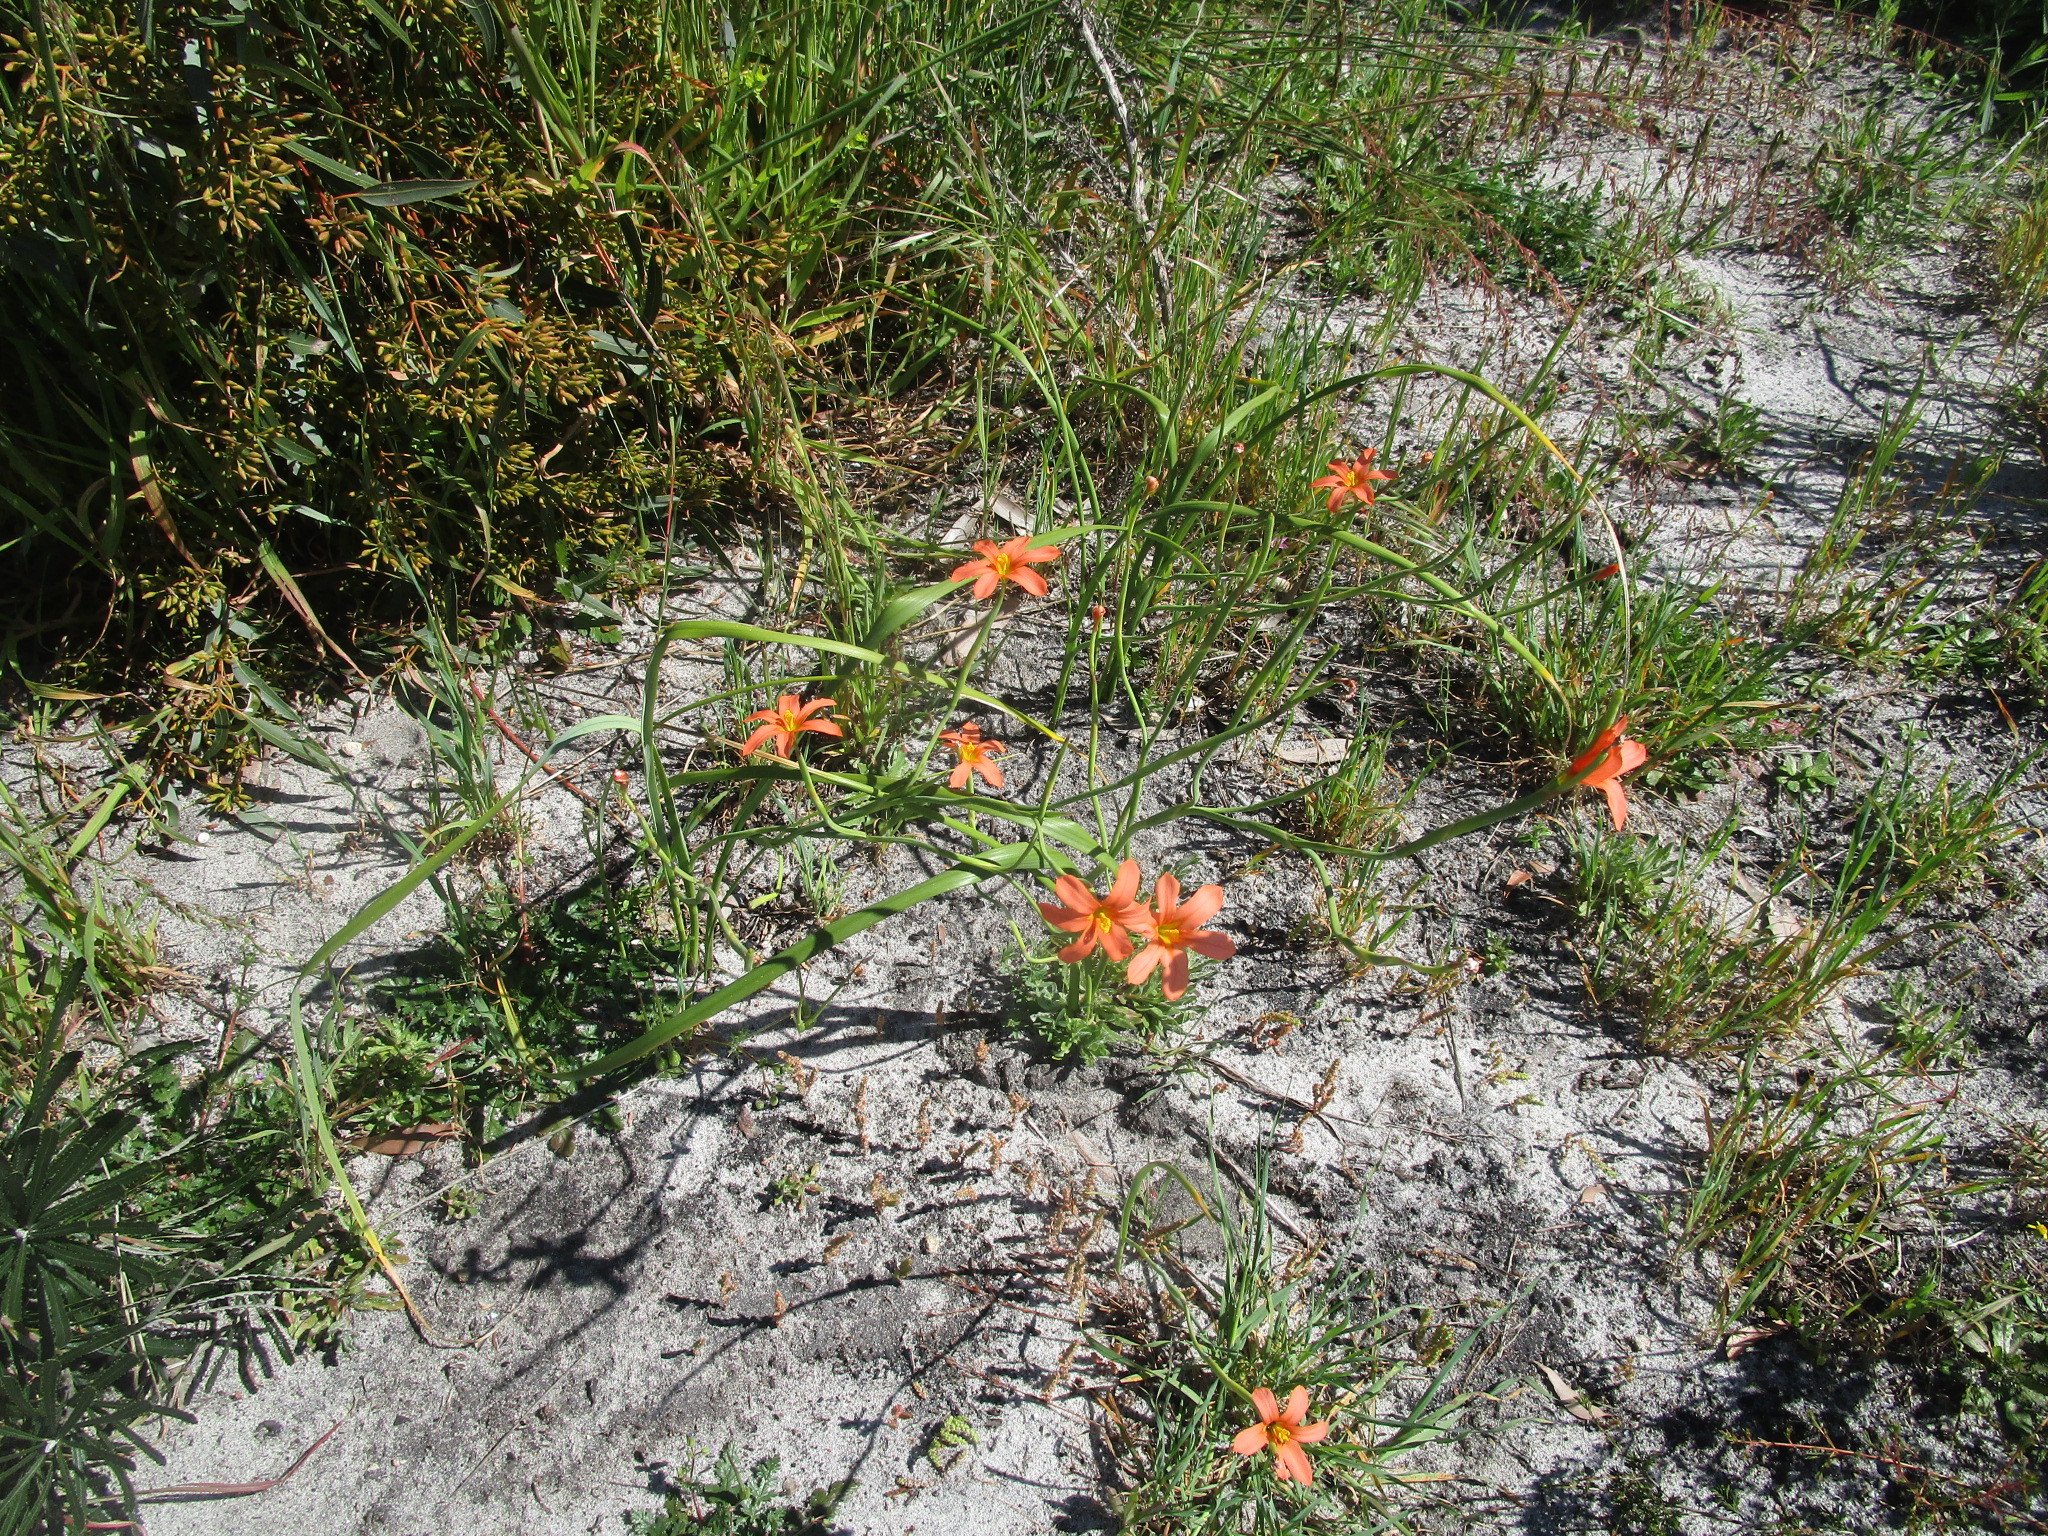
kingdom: Plantae
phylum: Tracheophyta
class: Liliopsida
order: Asparagales
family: Iridaceae
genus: Moraea
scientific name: Moraea flaccida
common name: One-leaf cape-tulip
